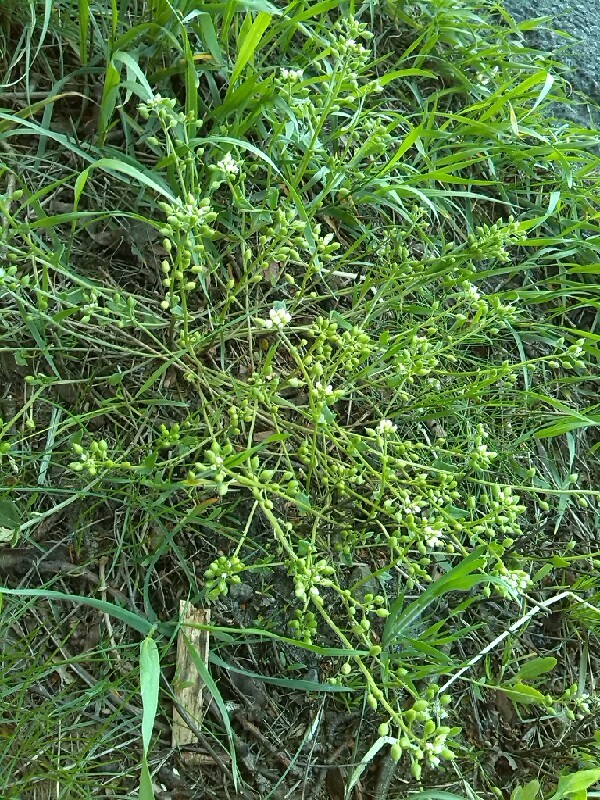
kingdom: Plantae
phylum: Tracheophyta
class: Magnoliopsida
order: Brassicales
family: Brassicaceae
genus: Cochlearia
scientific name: Cochlearia danica
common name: Early scurvygrass
